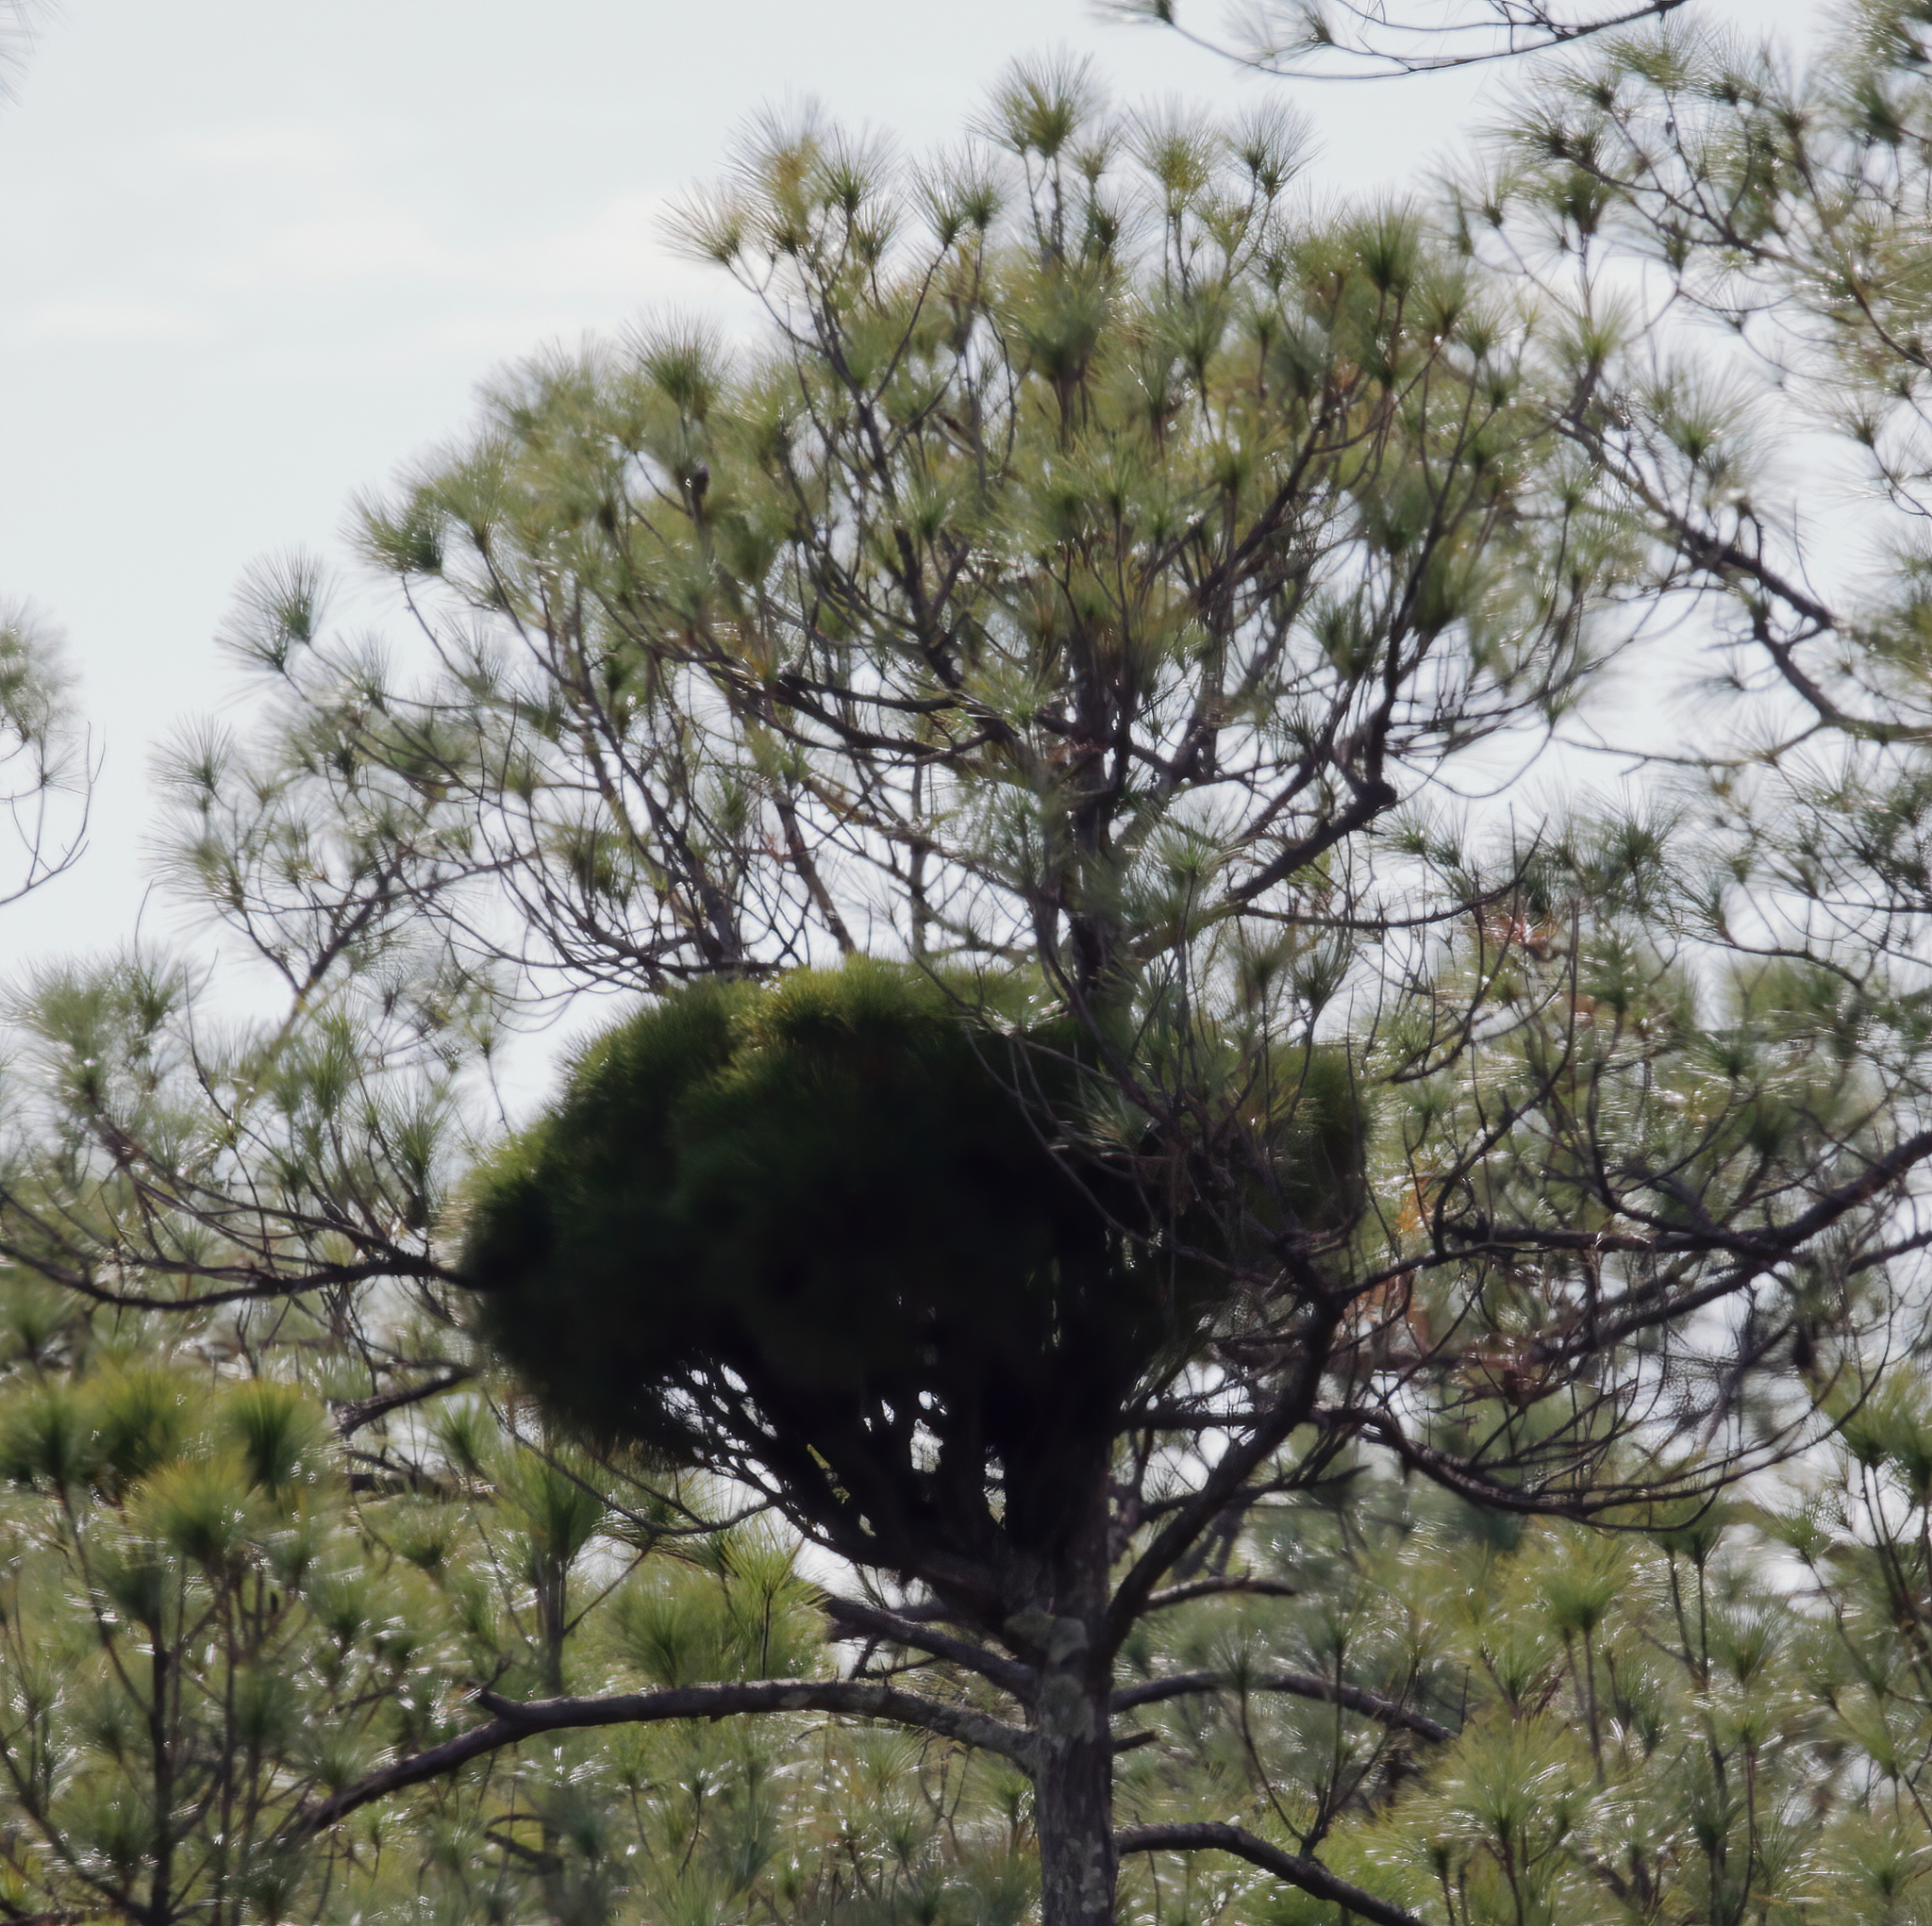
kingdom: Bacteria
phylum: Firmicutes
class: Bacilli
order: Acholeplasmatales
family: Acholeplasmataceae
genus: Phytoplasma
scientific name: Phytoplasma pini
